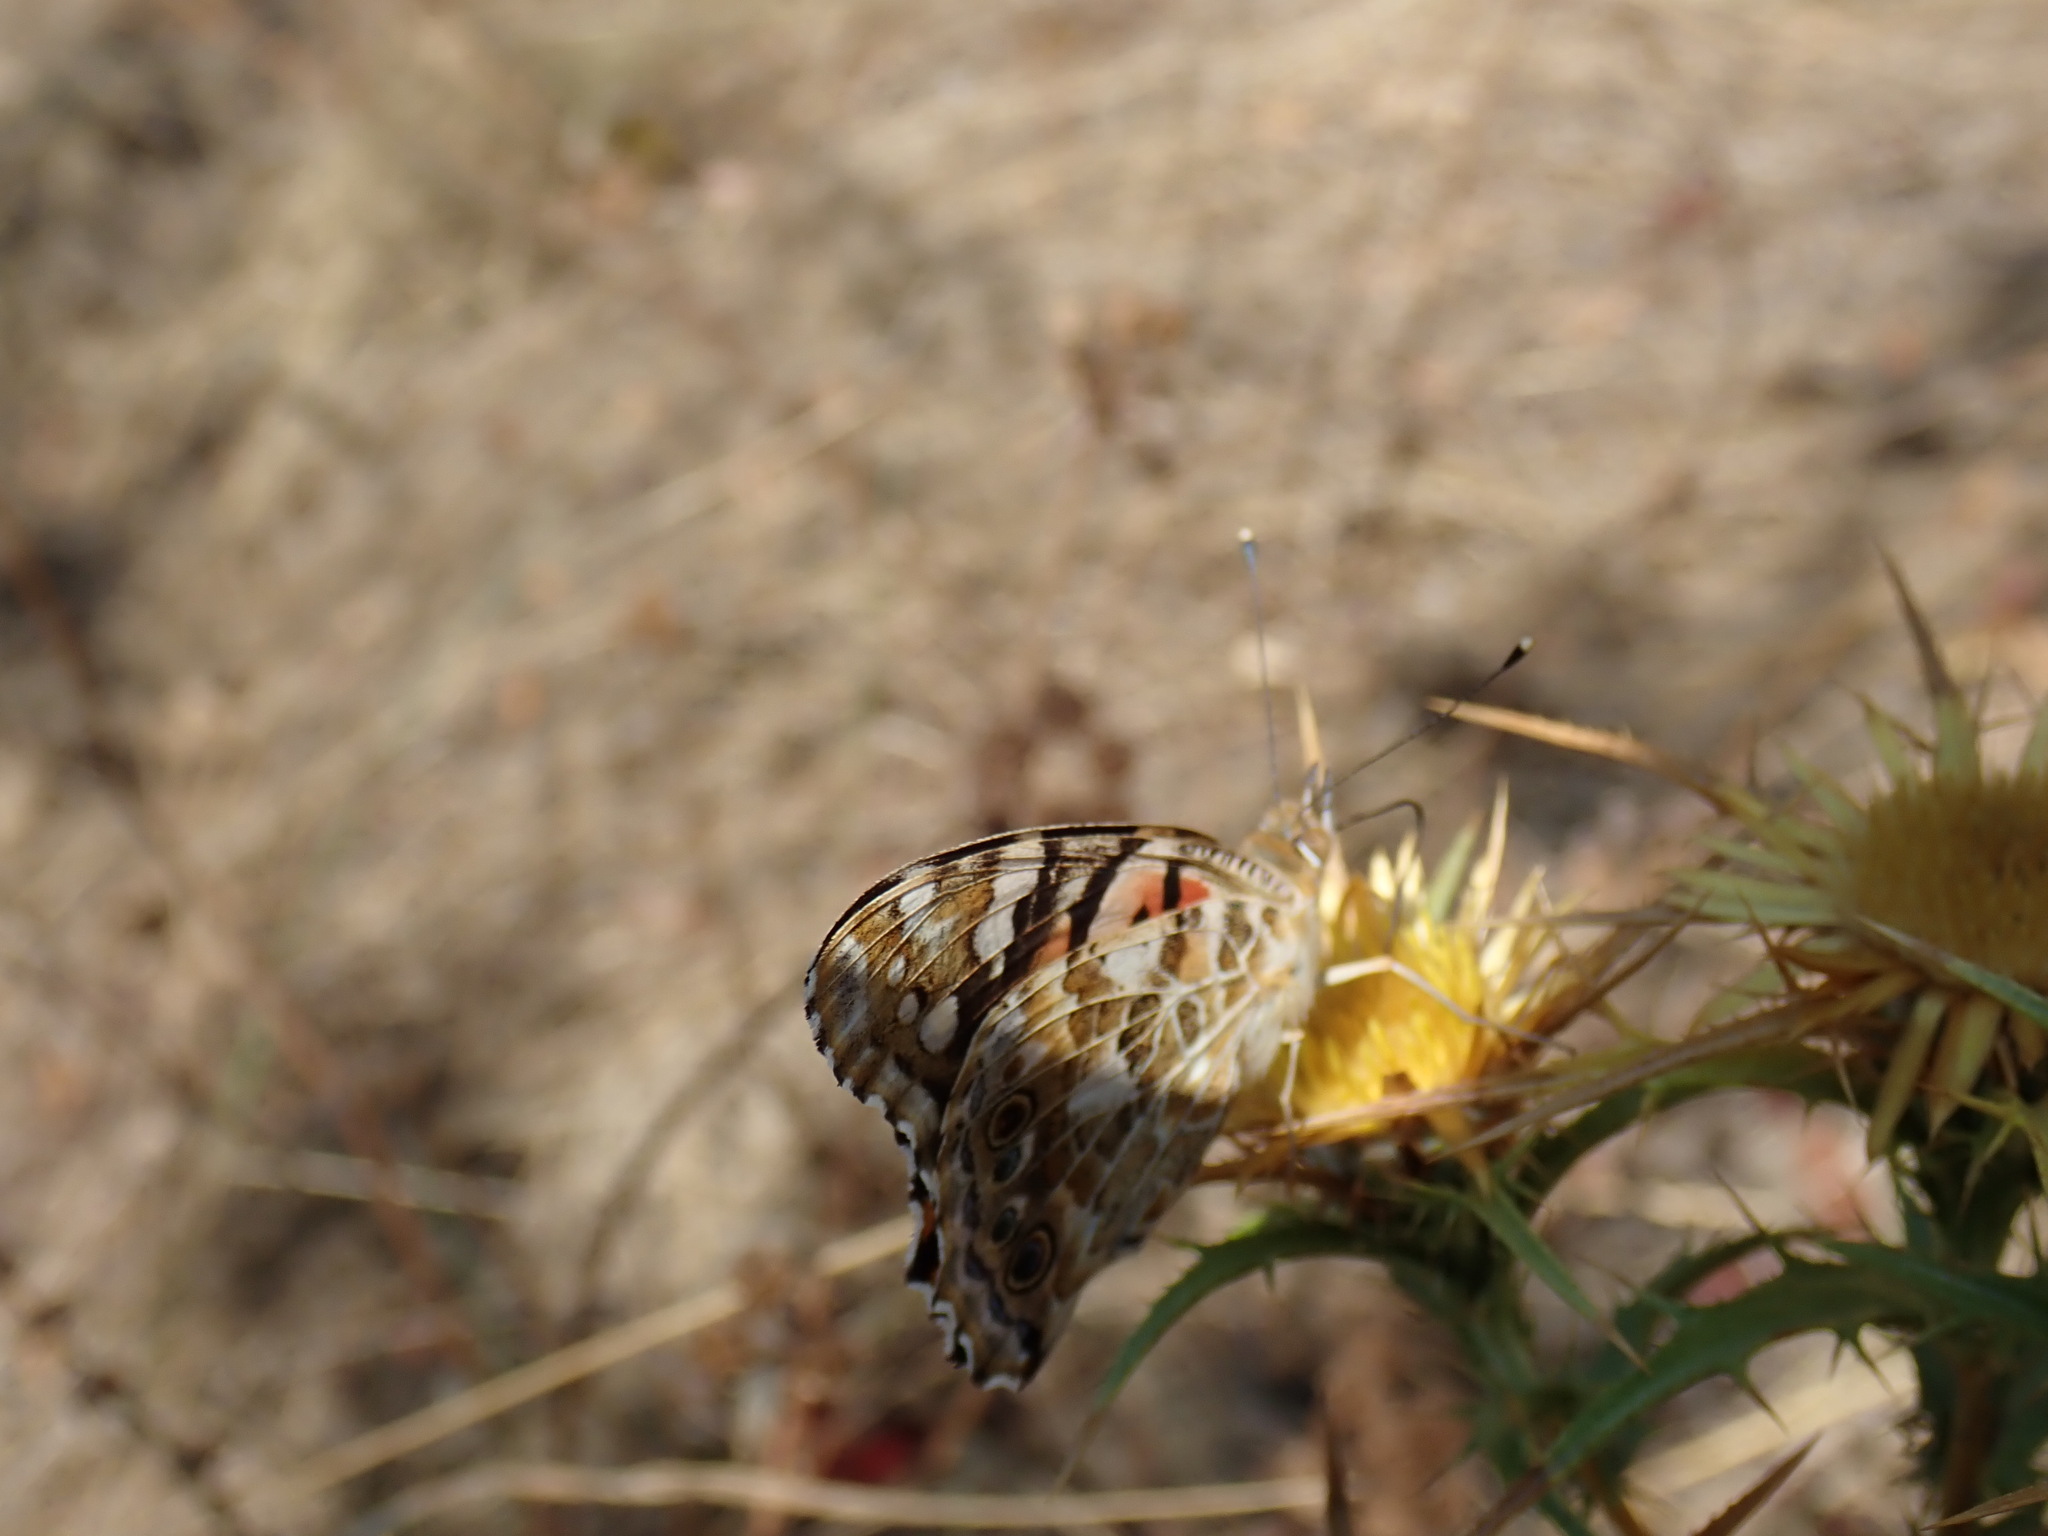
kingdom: Animalia
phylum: Arthropoda
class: Insecta
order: Lepidoptera
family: Nymphalidae
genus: Vanessa
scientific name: Vanessa cardui
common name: Painted lady
